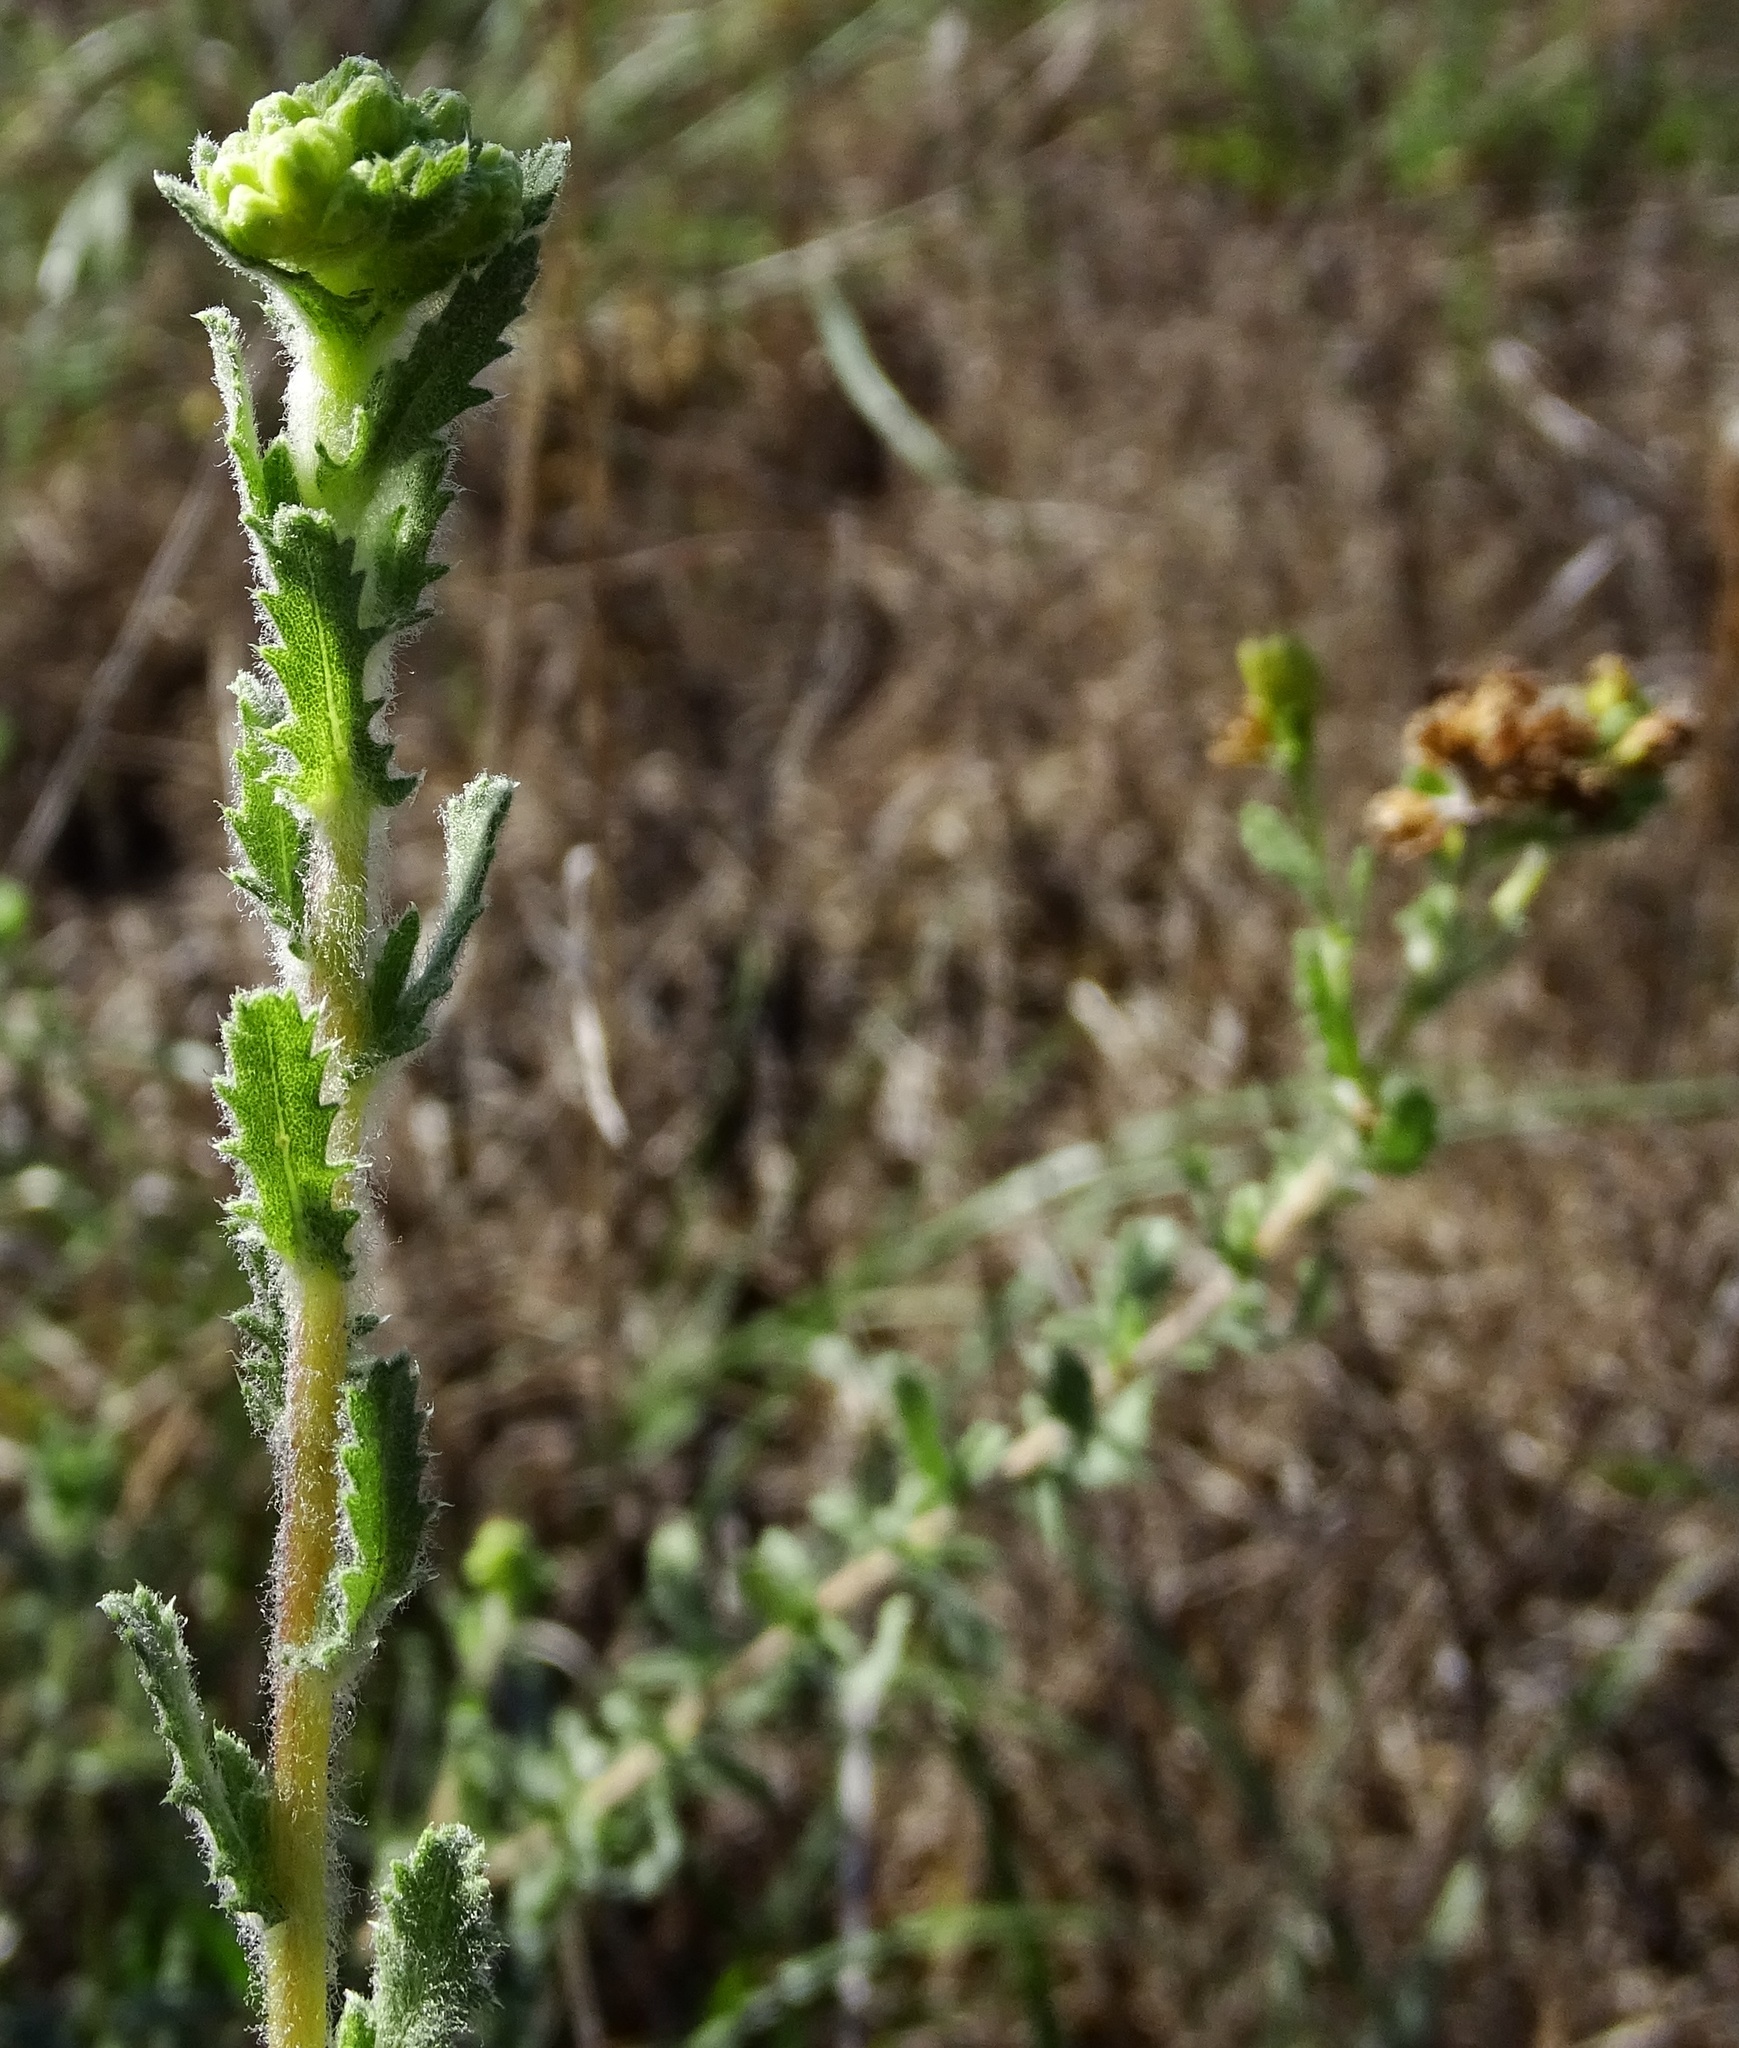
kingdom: Plantae
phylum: Tracheophyta
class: Magnoliopsida
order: Asterales
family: Asteraceae
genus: Isocoma
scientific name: Isocoma menziesii
